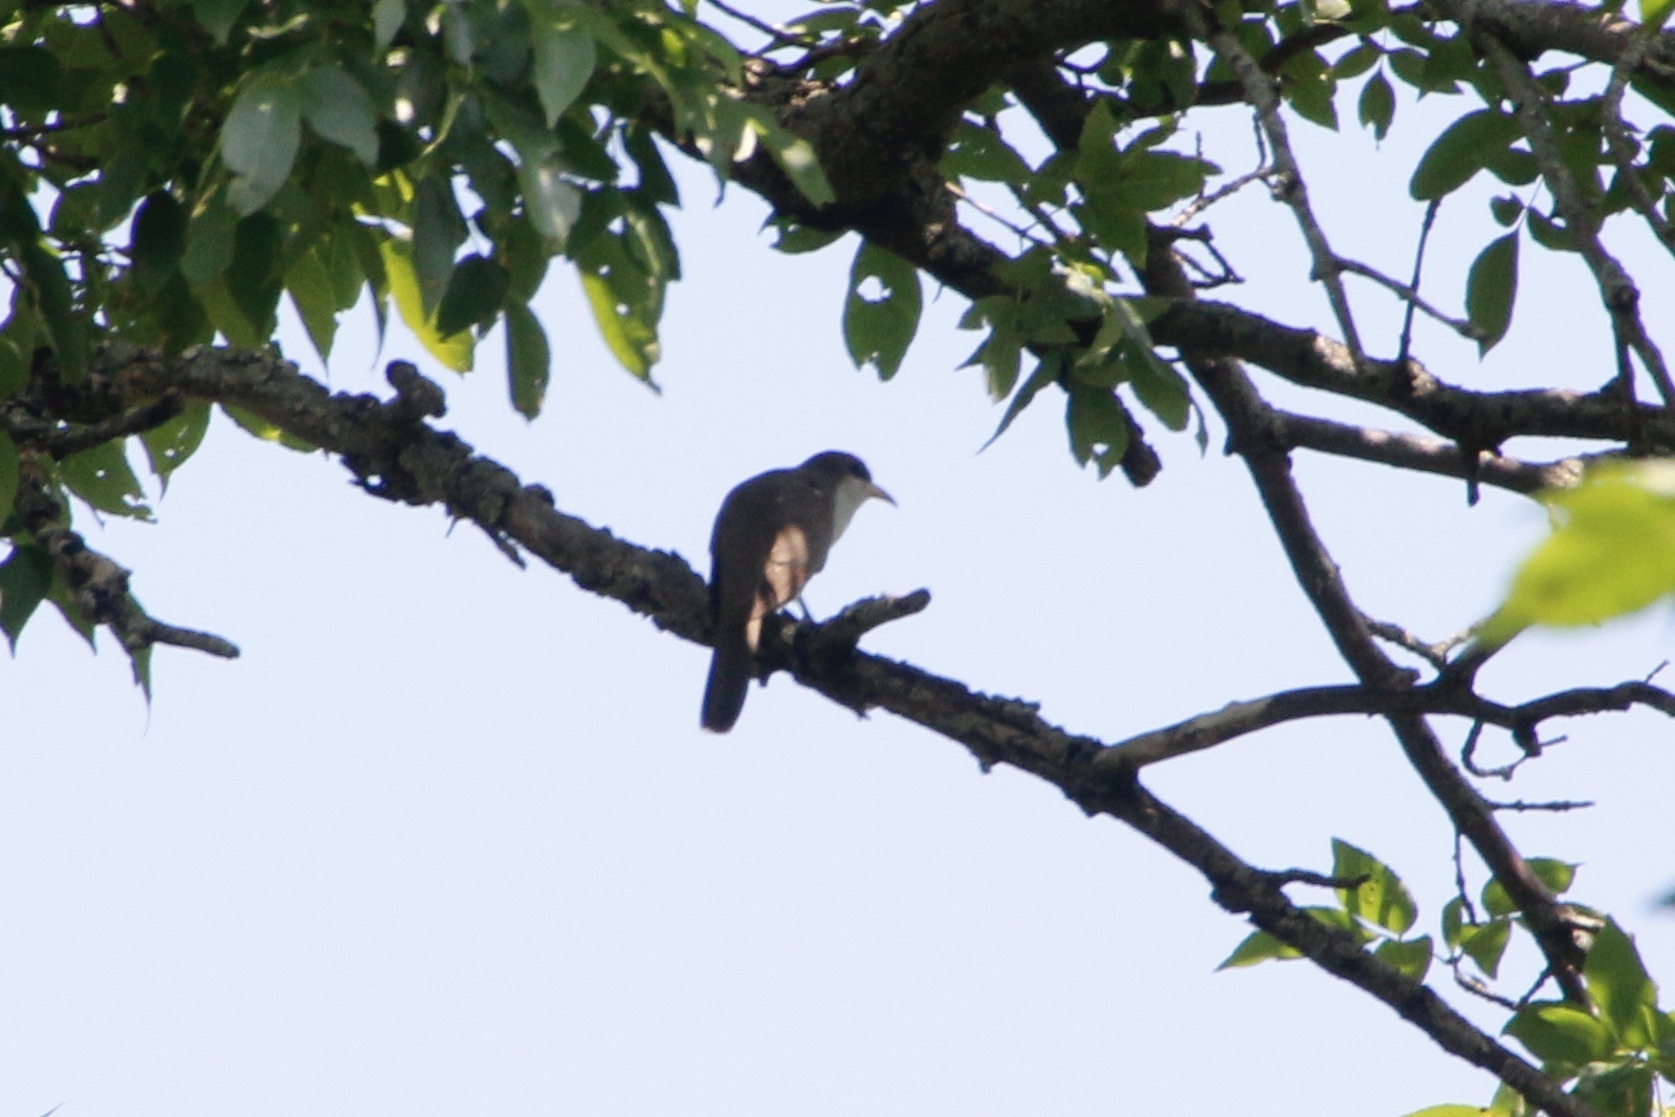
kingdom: Animalia
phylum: Chordata
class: Aves
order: Cuculiformes
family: Cuculidae
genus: Coccyzus
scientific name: Coccyzus americanus
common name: Yellow-billed cuckoo
